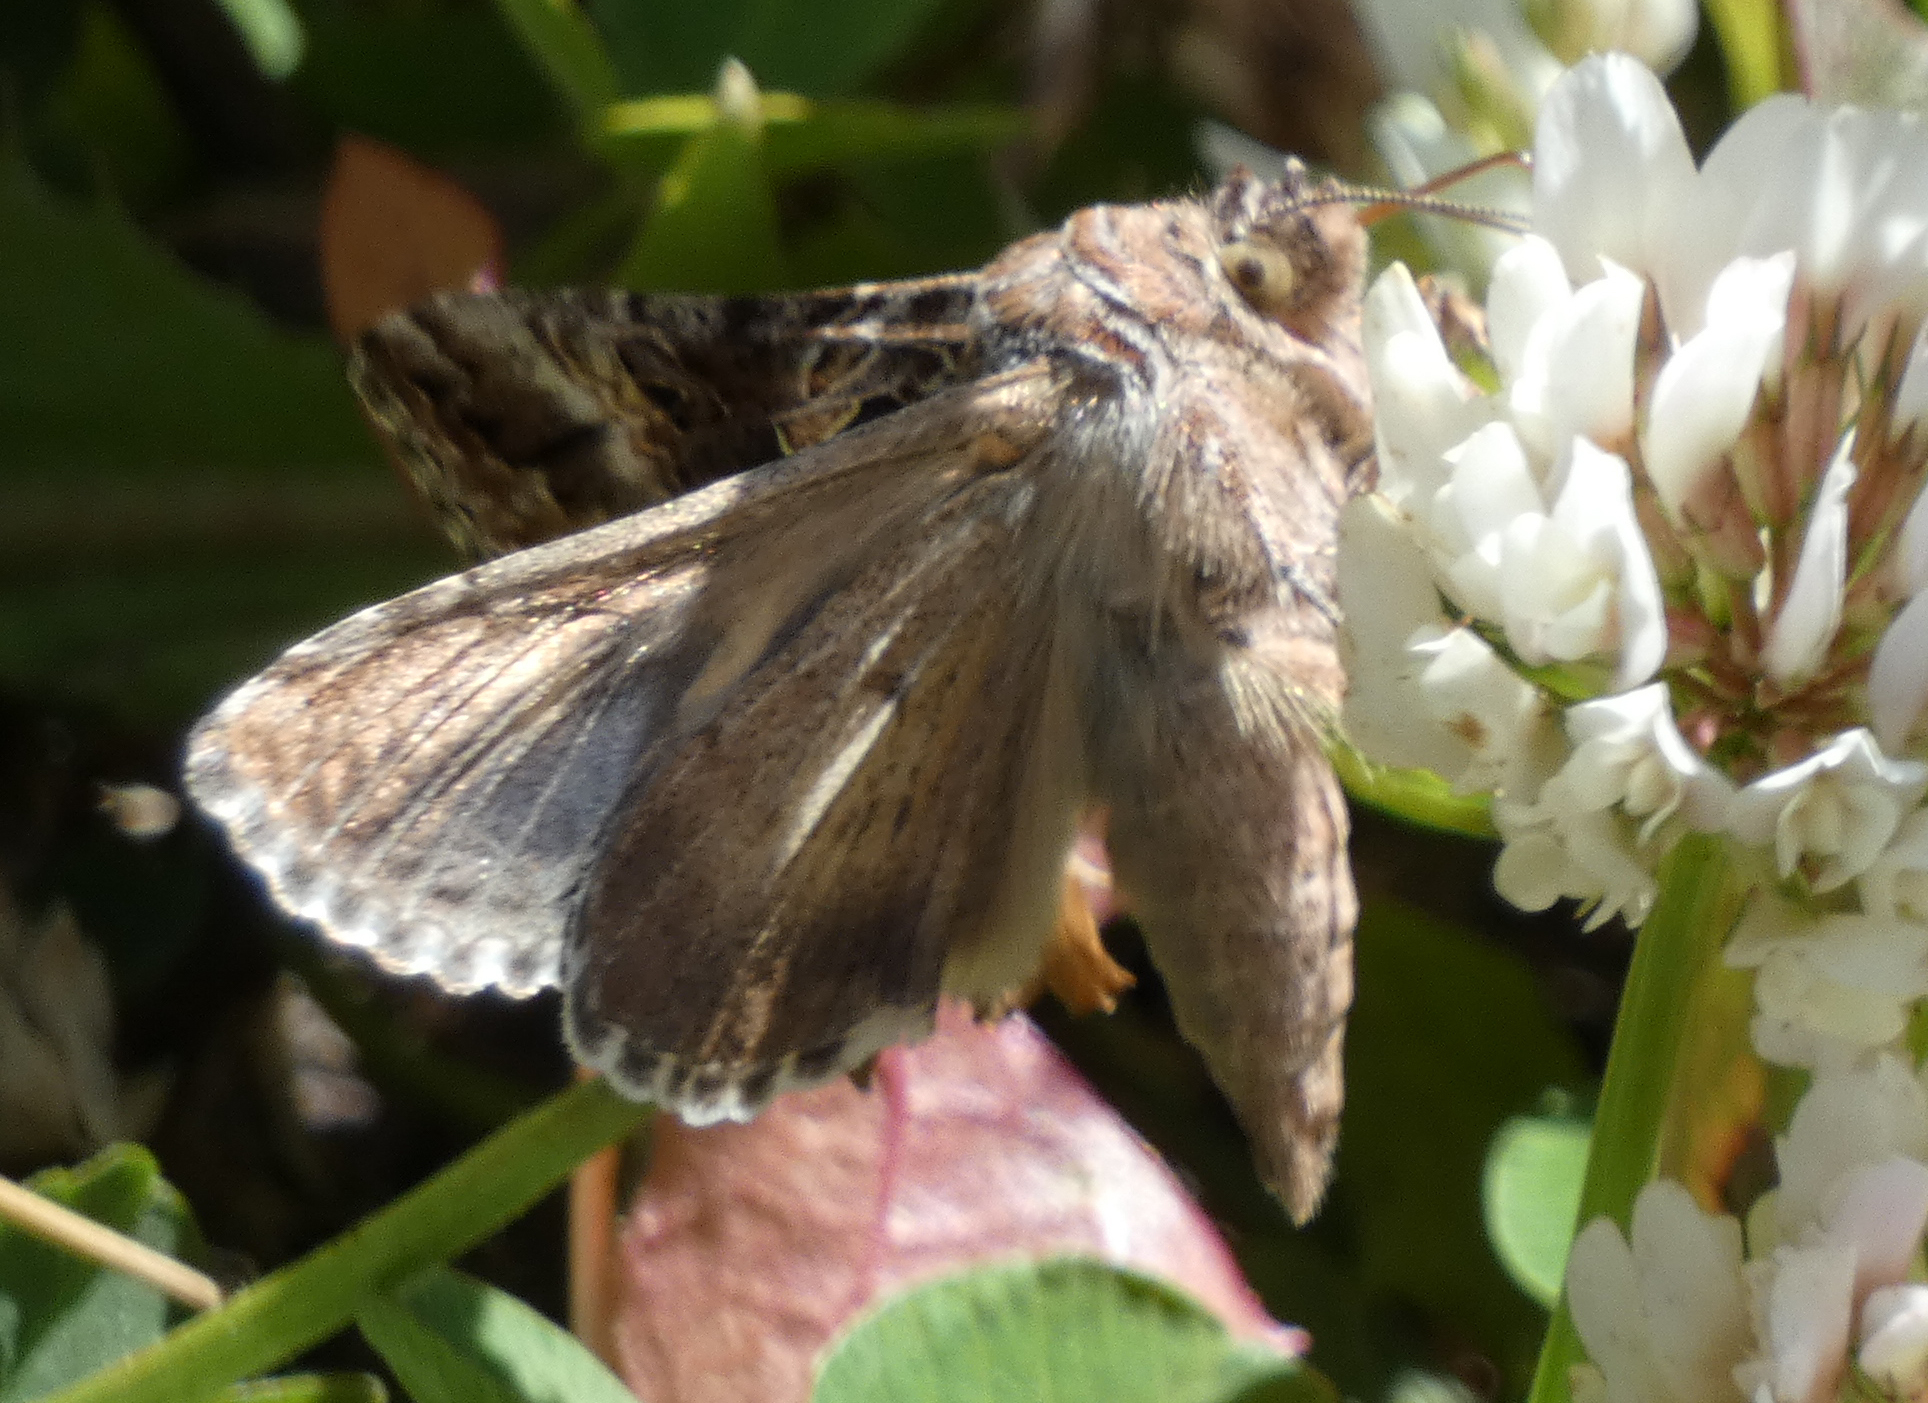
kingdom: Animalia
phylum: Arthropoda
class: Insecta
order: Lepidoptera
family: Noctuidae
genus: Autographa
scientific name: Autographa californica
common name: Alfalfa looper
